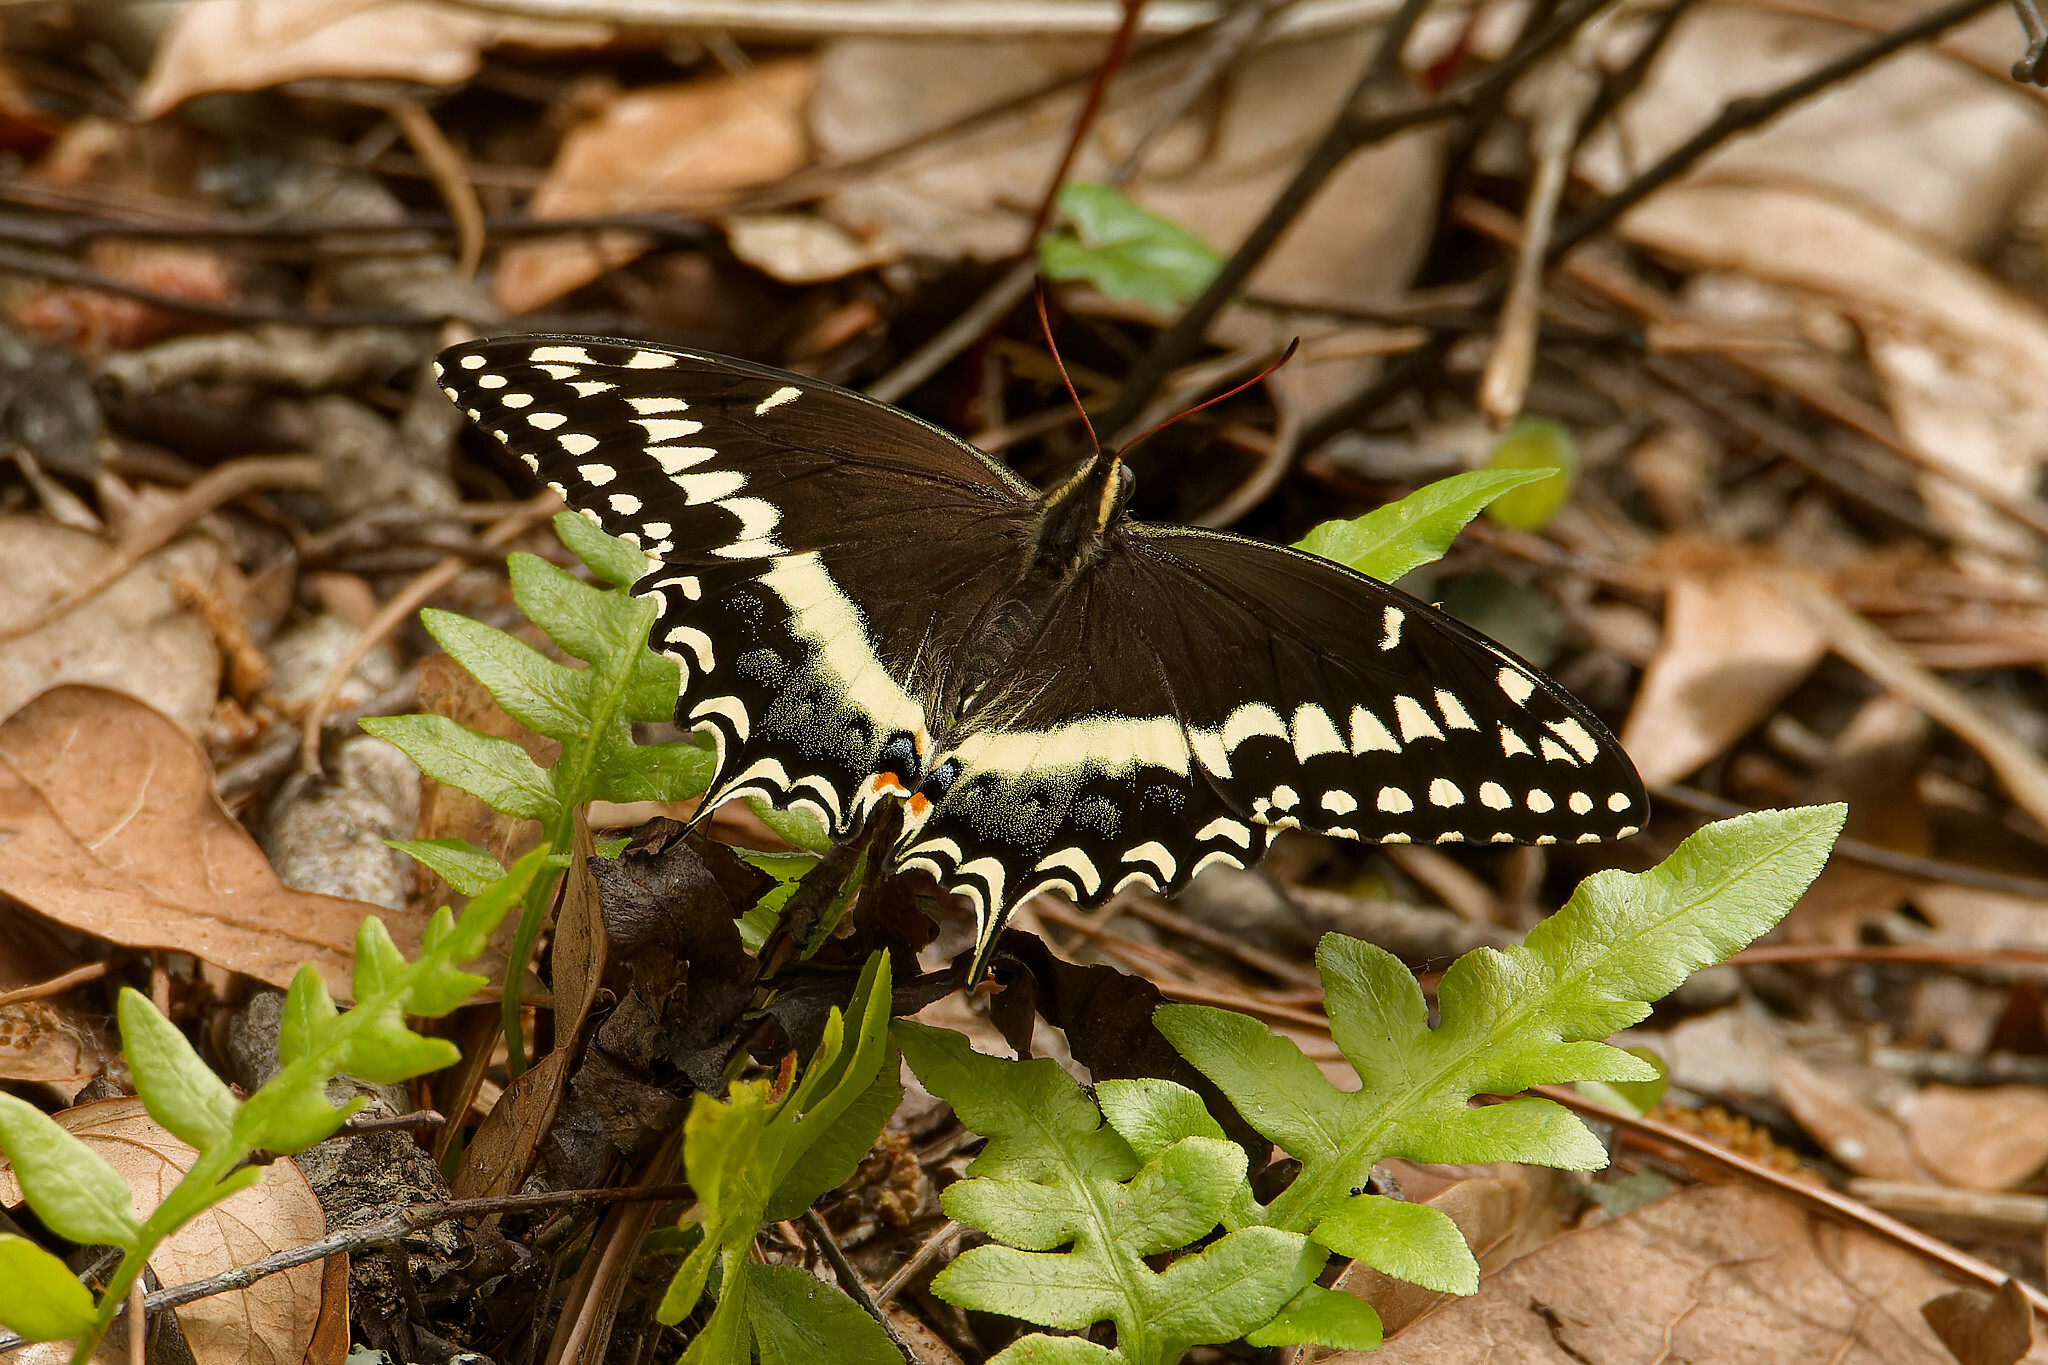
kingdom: Animalia
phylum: Arthropoda
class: Insecta
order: Lepidoptera
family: Papilionidae
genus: Papilio
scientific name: Papilio palamedes
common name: Palamedes swallowtail
